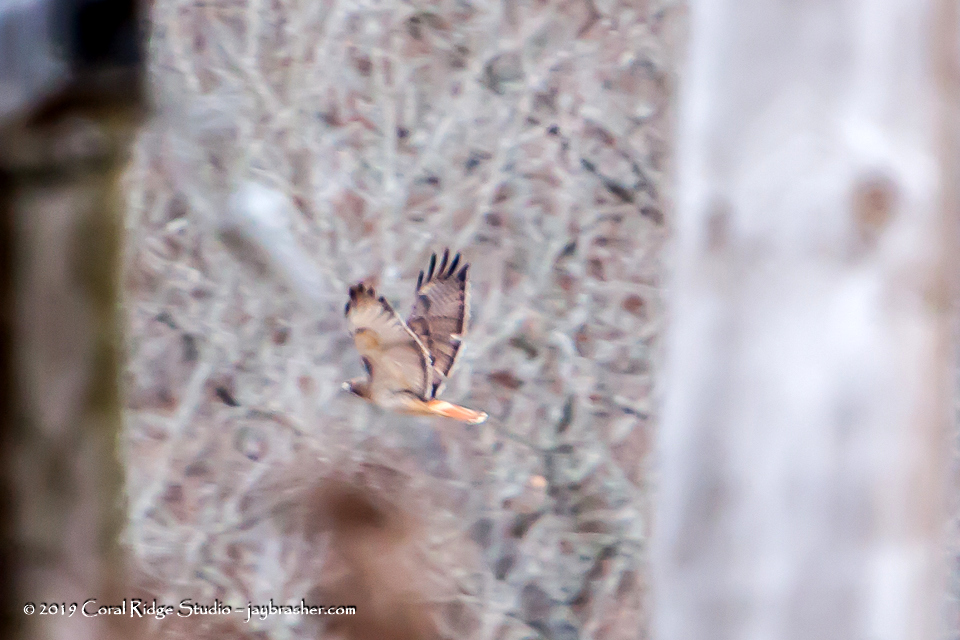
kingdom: Animalia
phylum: Chordata
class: Aves
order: Accipitriformes
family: Accipitridae
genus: Buteo
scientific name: Buteo jamaicensis
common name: Red-tailed hawk
